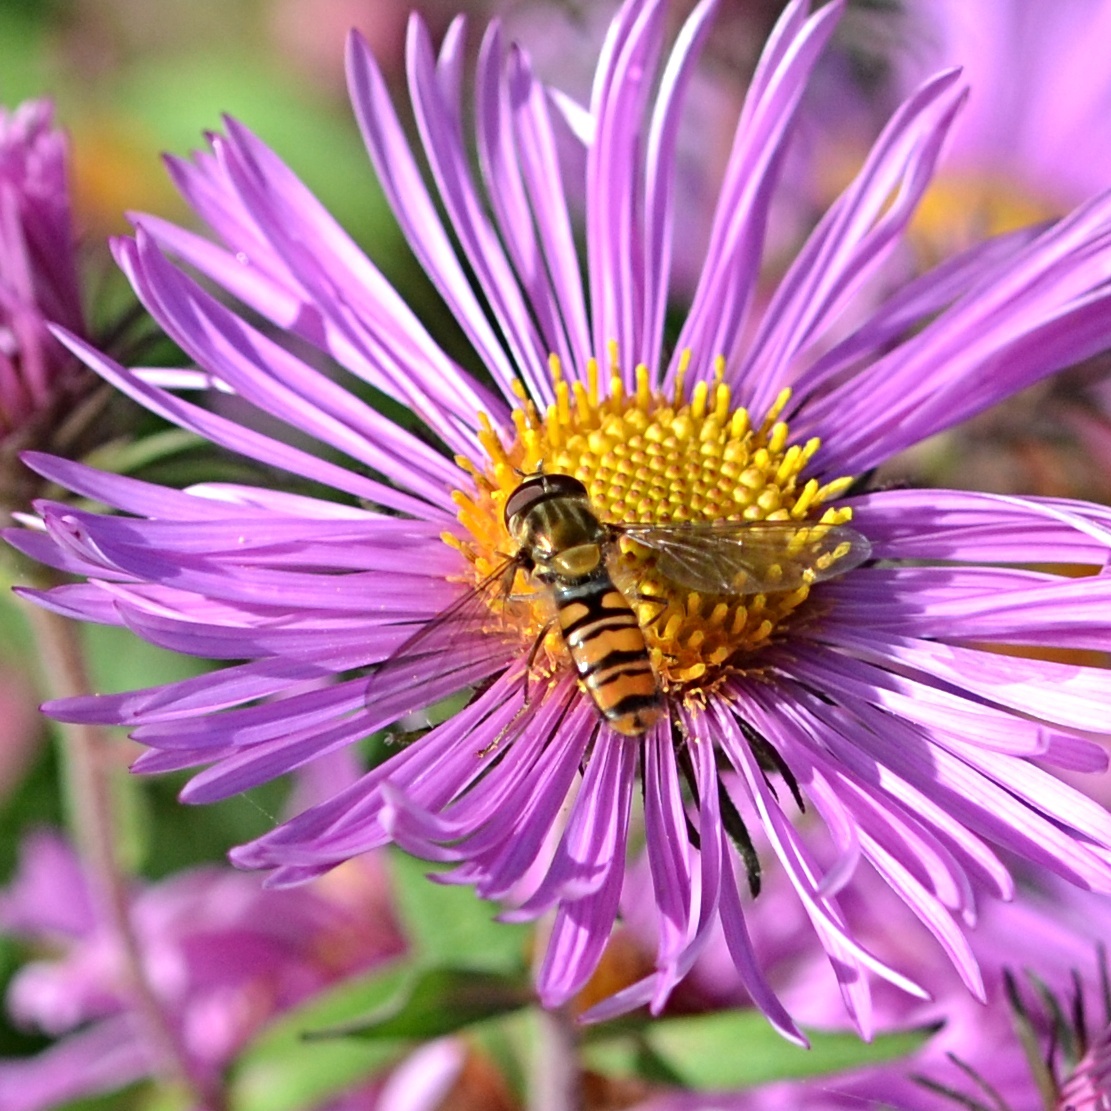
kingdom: Animalia
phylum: Arthropoda
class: Insecta
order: Diptera
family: Syrphidae
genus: Episyrphus
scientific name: Episyrphus balteatus
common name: Marmalade hoverfly
